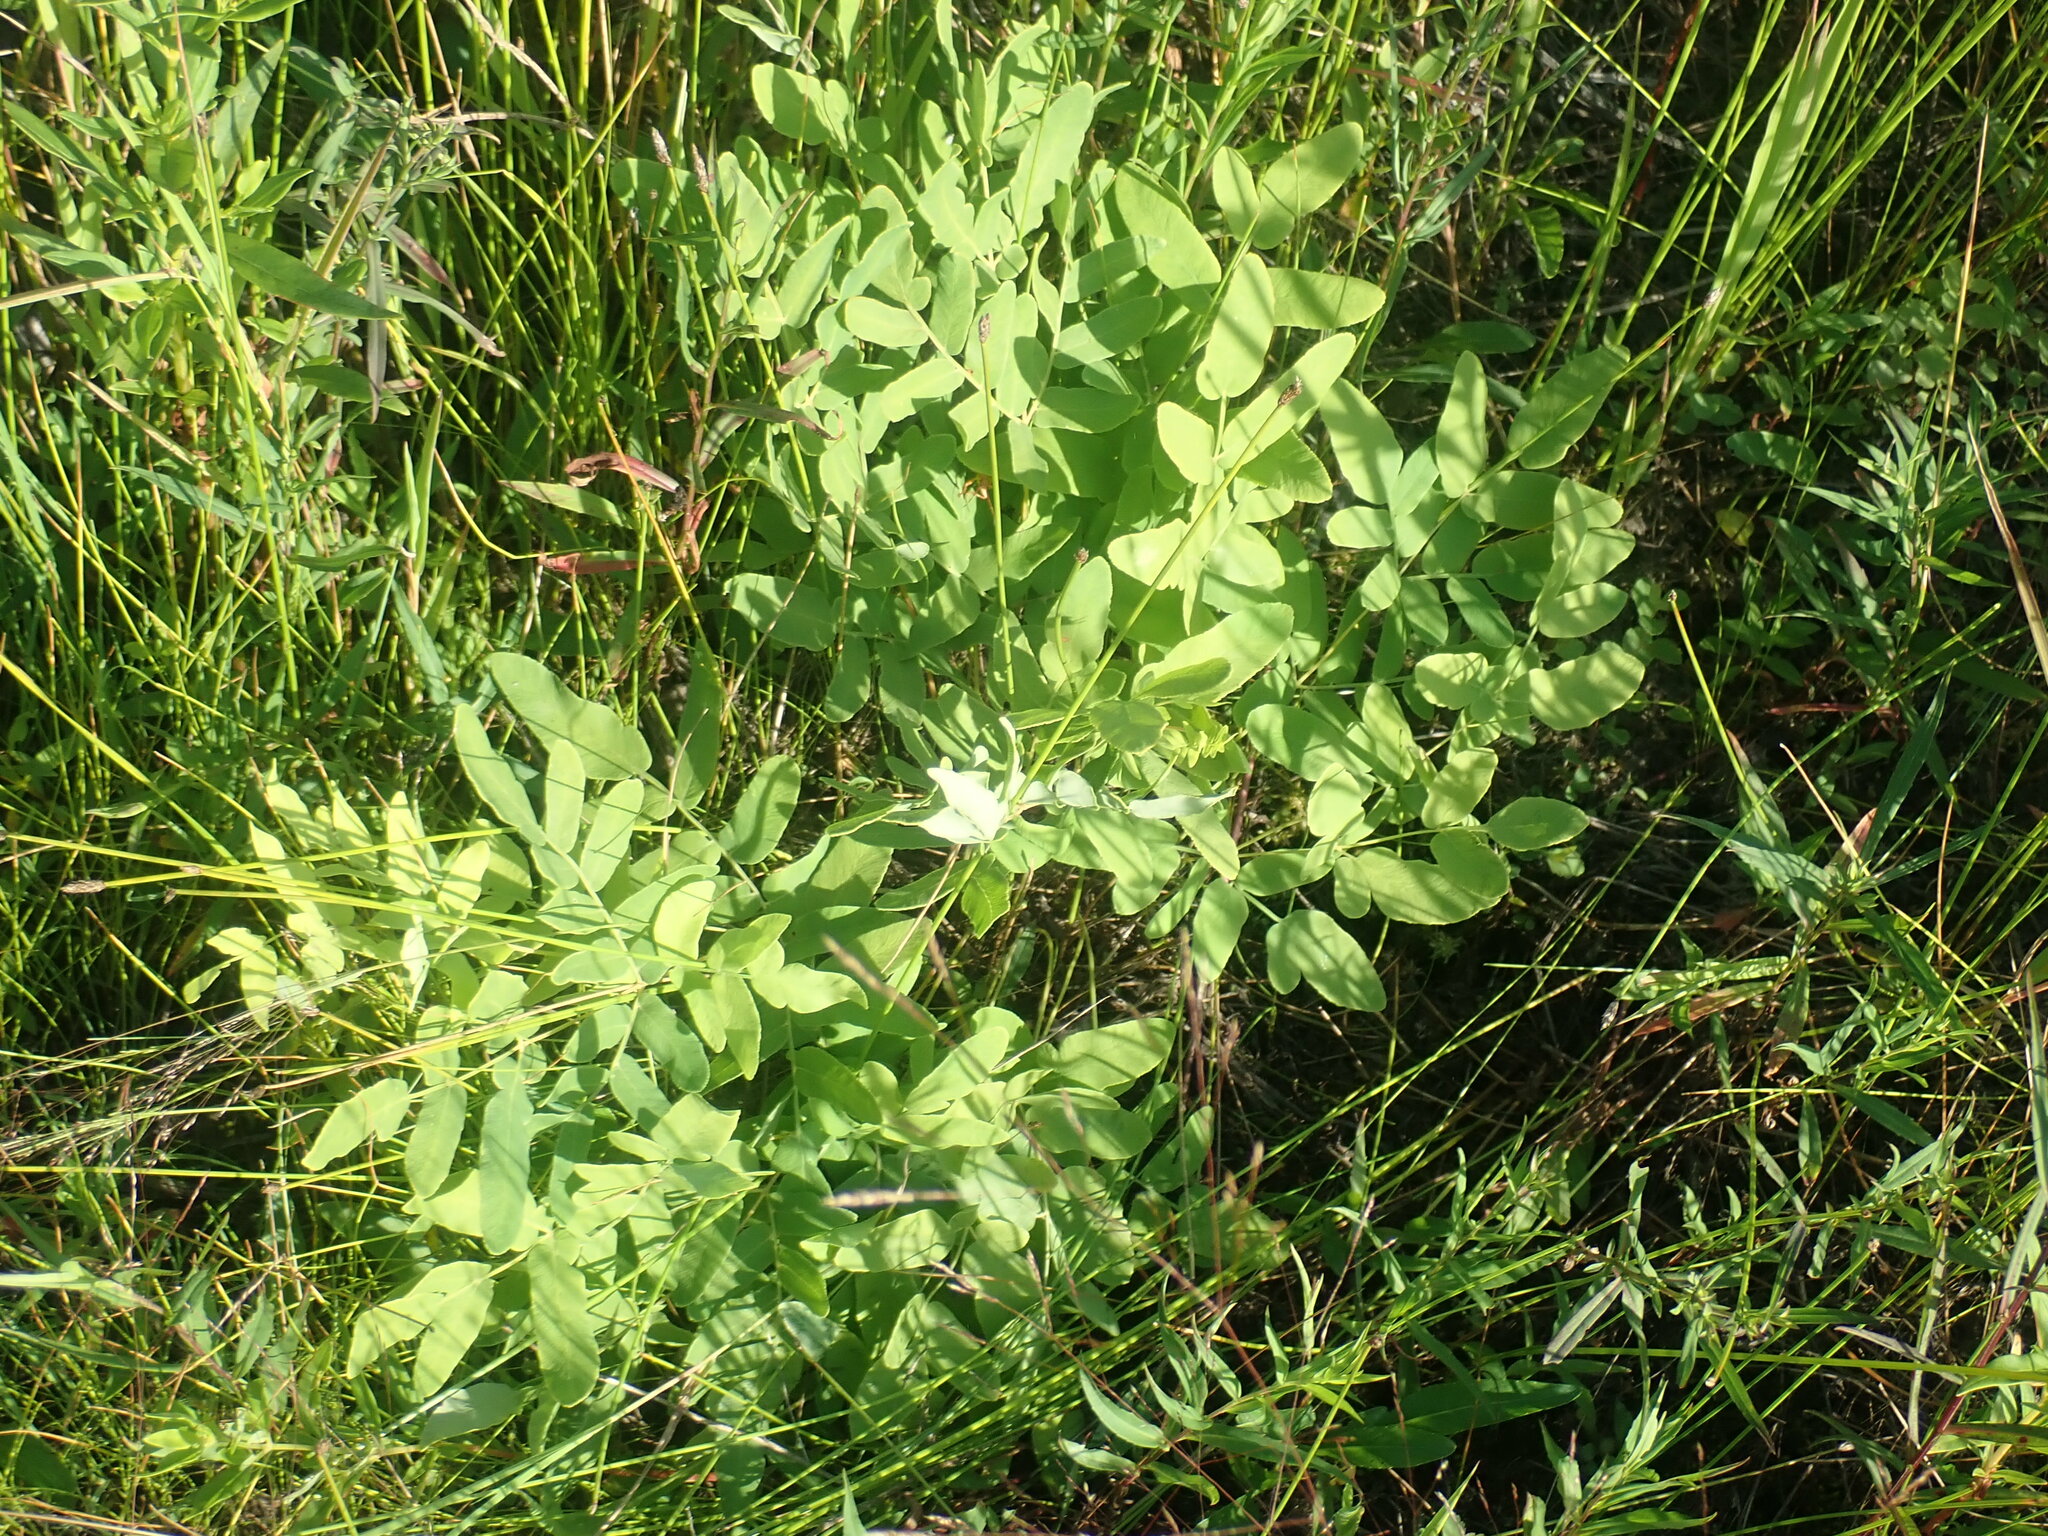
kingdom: Plantae
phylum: Tracheophyta
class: Polypodiopsida
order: Osmundales
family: Osmundaceae
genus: Osmunda
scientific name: Osmunda spectabilis
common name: American royal fern
